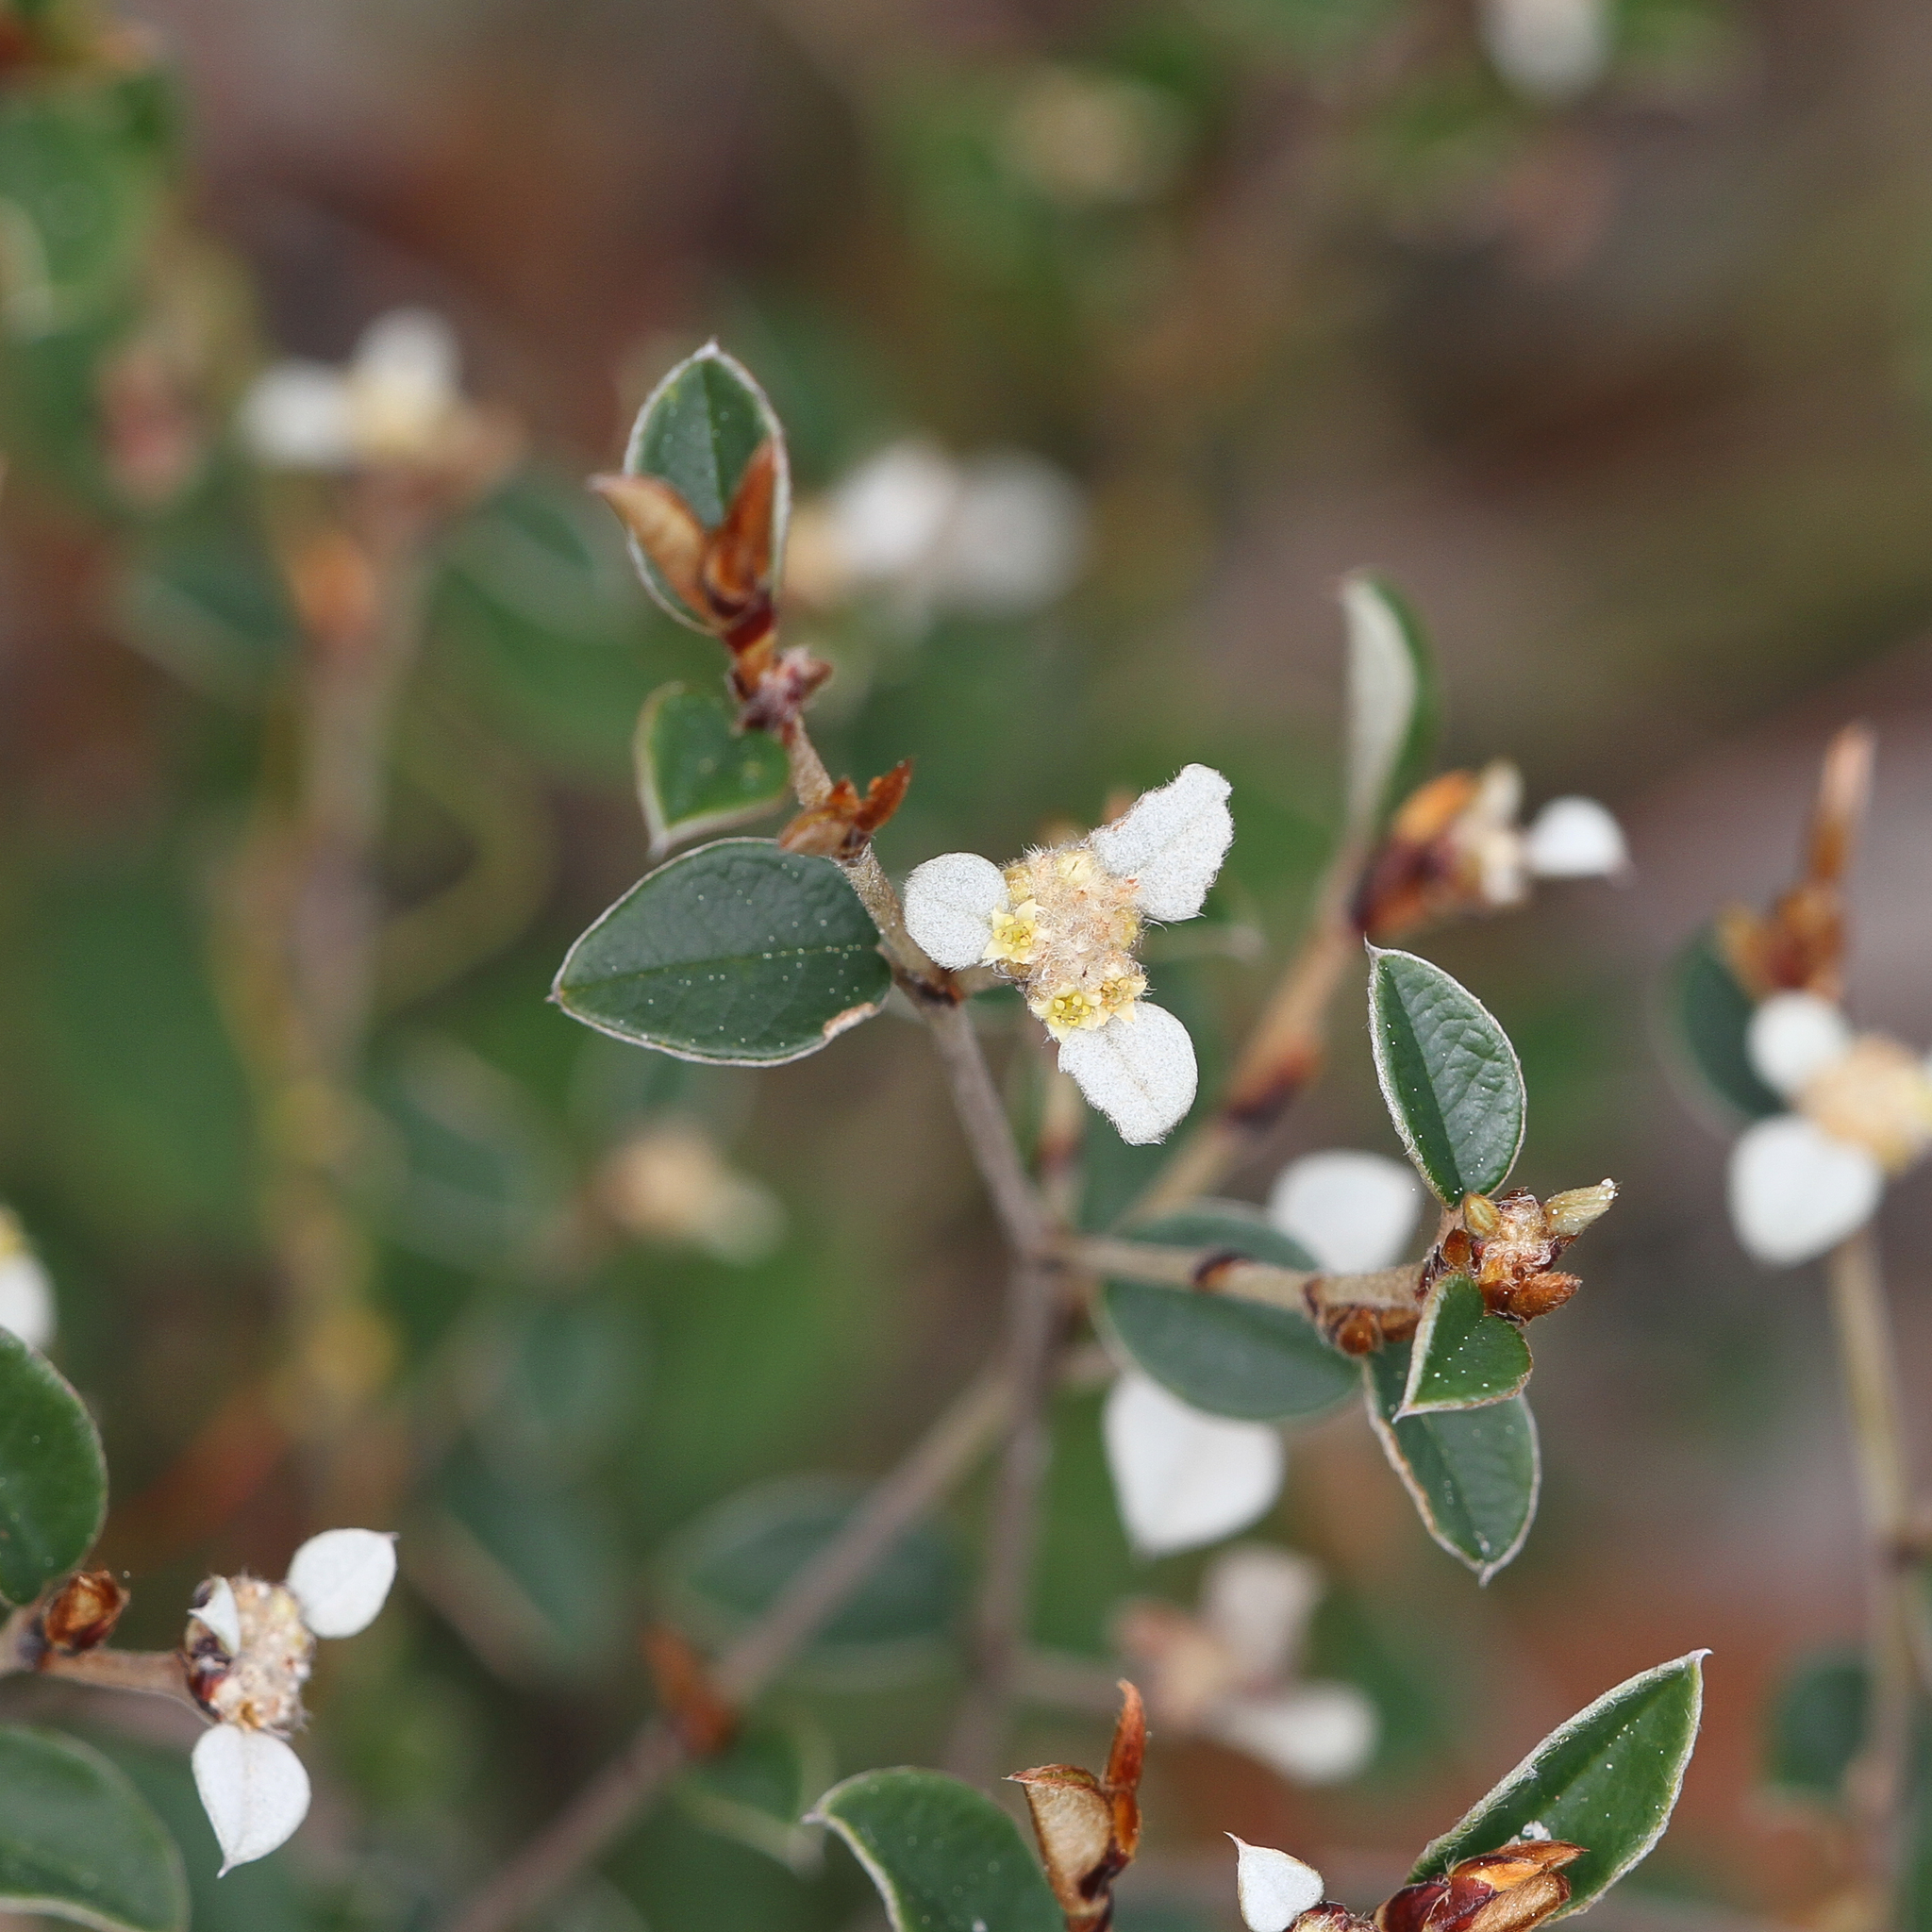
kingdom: Plantae
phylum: Tracheophyta
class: Magnoliopsida
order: Rosales
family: Rhamnaceae
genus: Spyridium
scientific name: Spyridium thymifolium
